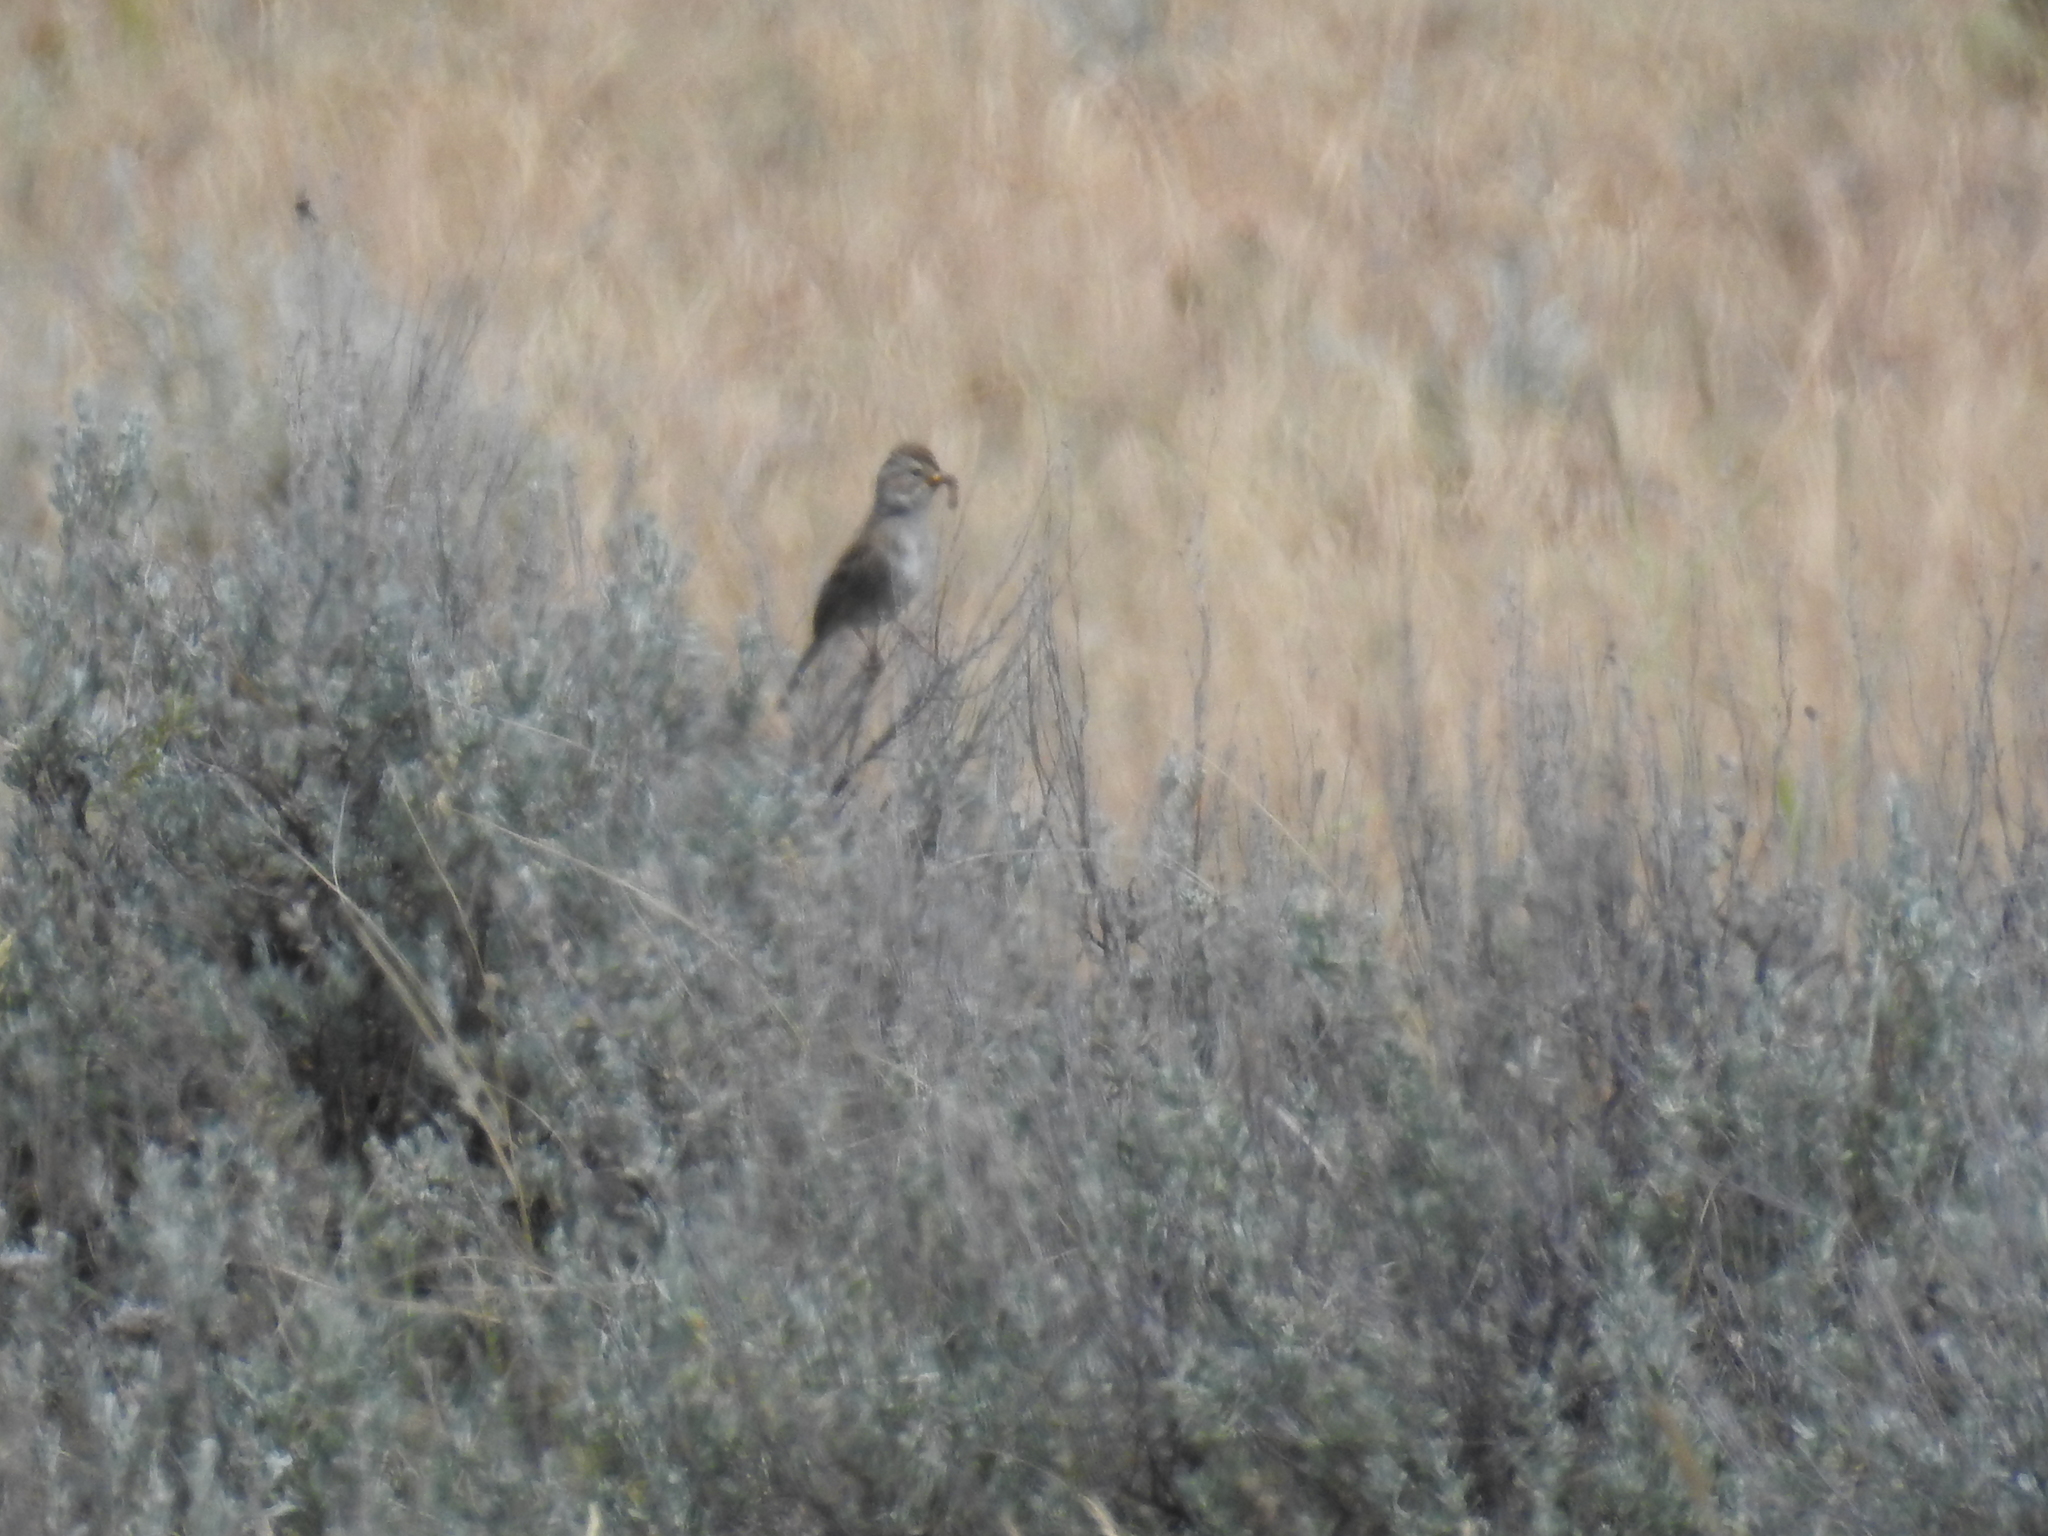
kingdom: Animalia
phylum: Chordata
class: Aves
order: Passeriformes
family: Passerellidae
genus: Spizella
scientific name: Spizella breweri
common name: Brewer's sparrow
